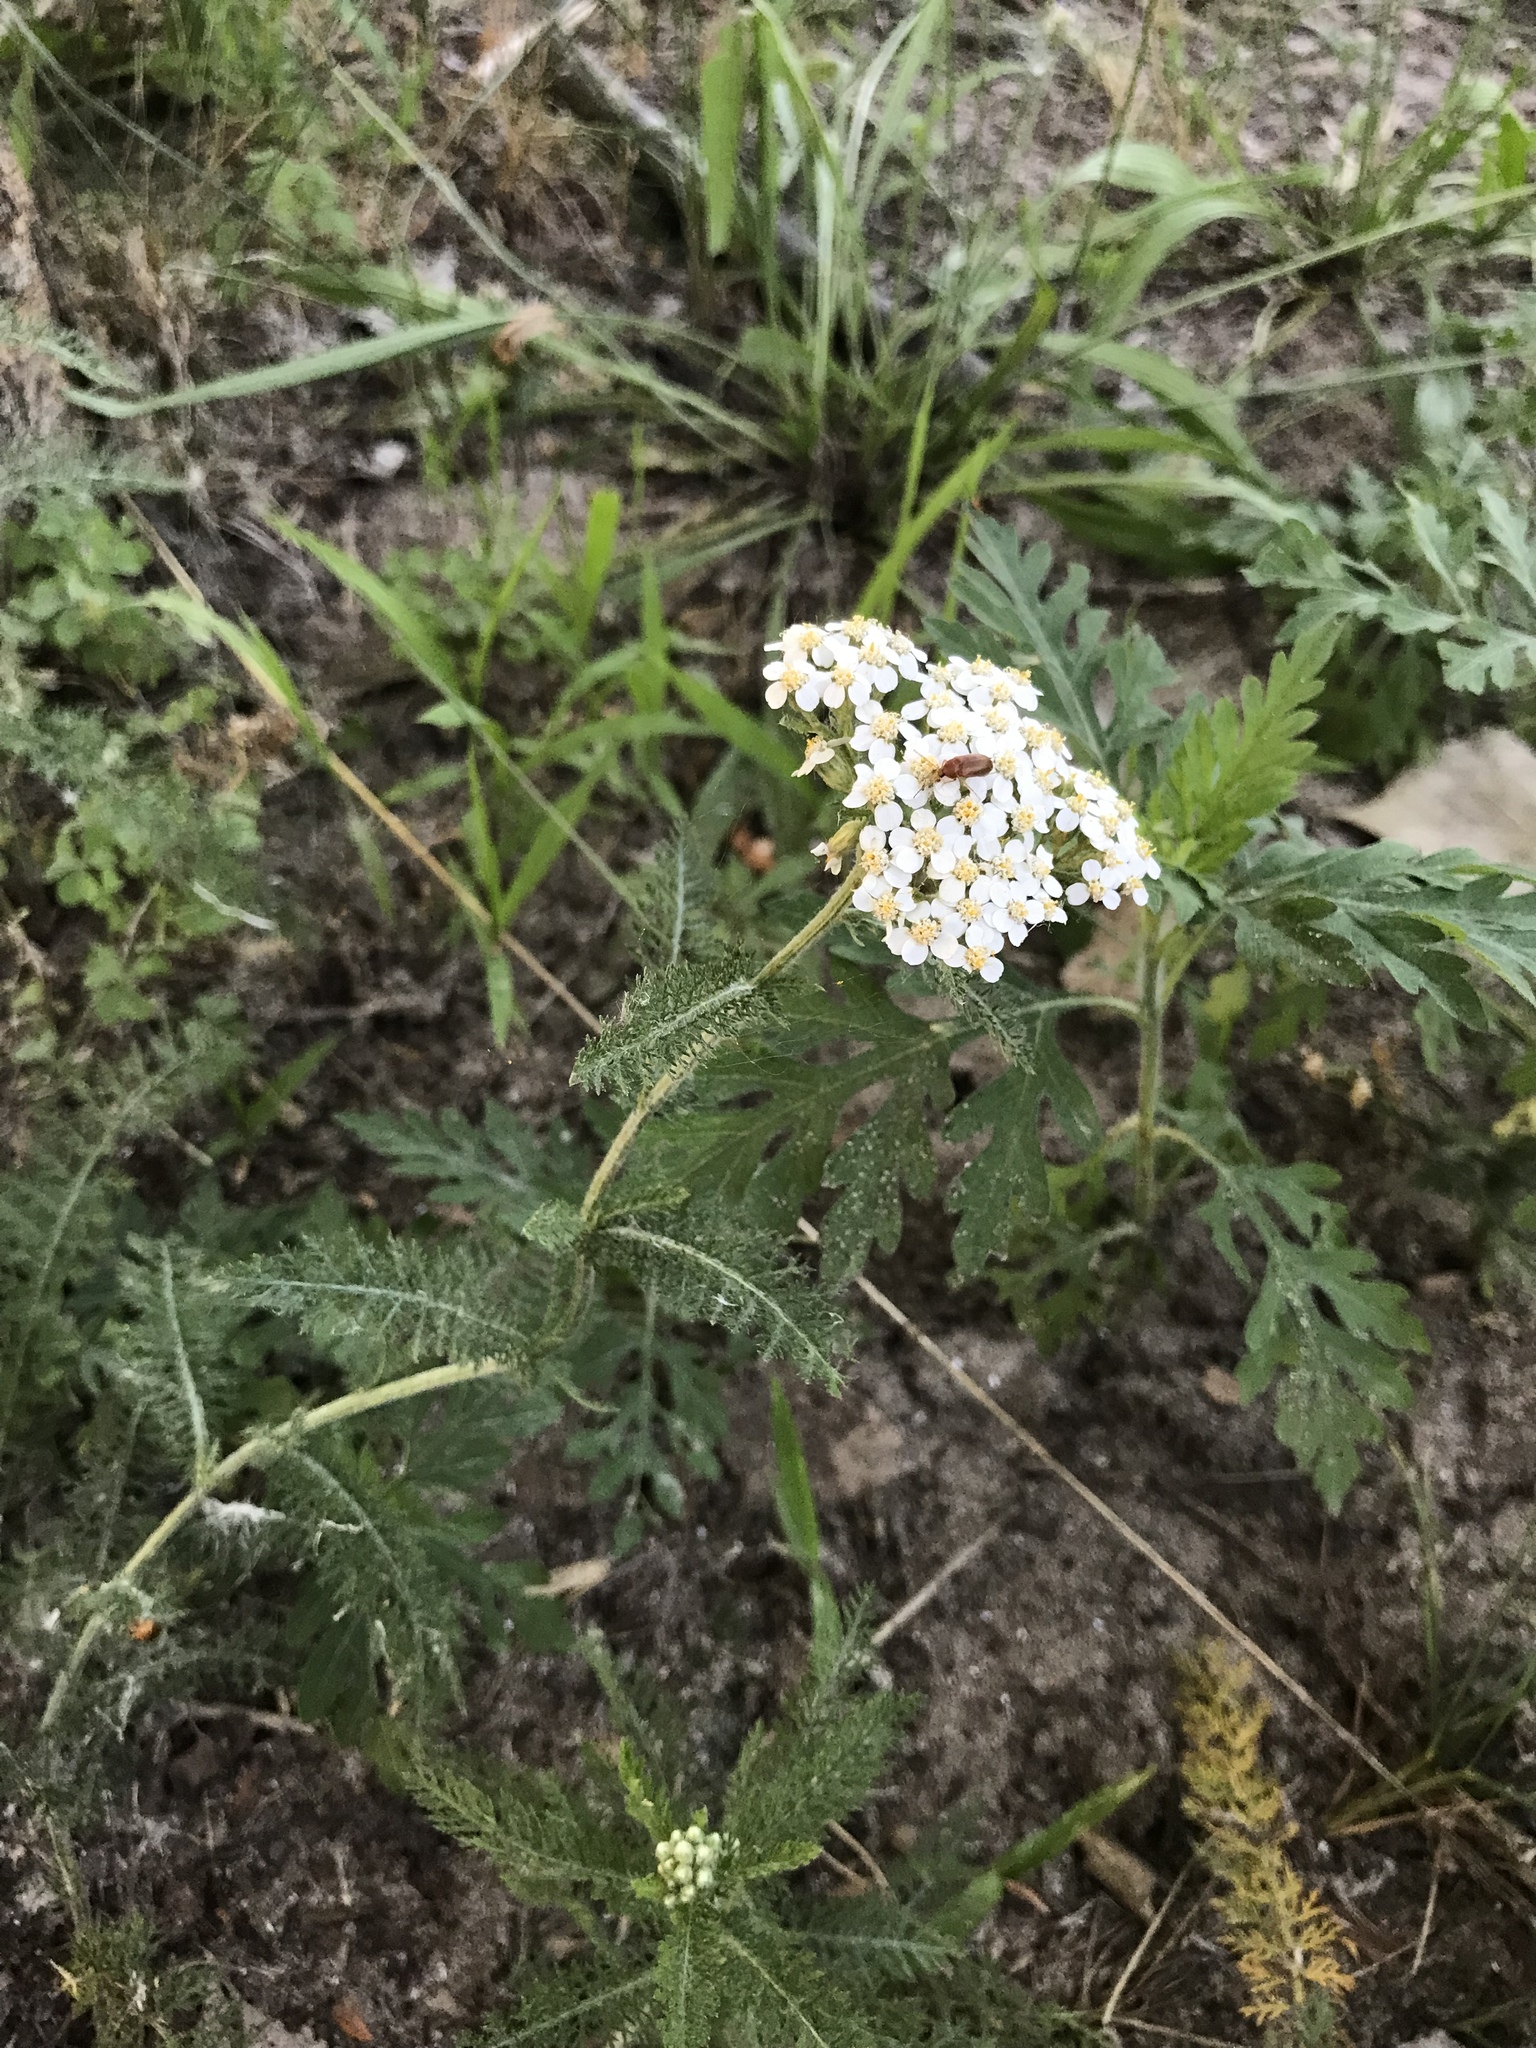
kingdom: Plantae
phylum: Tracheophyta
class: Magnoliopsida
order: Asterales
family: Asteraceae
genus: Achillea
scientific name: Achillea millefolium
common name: Yarrow
